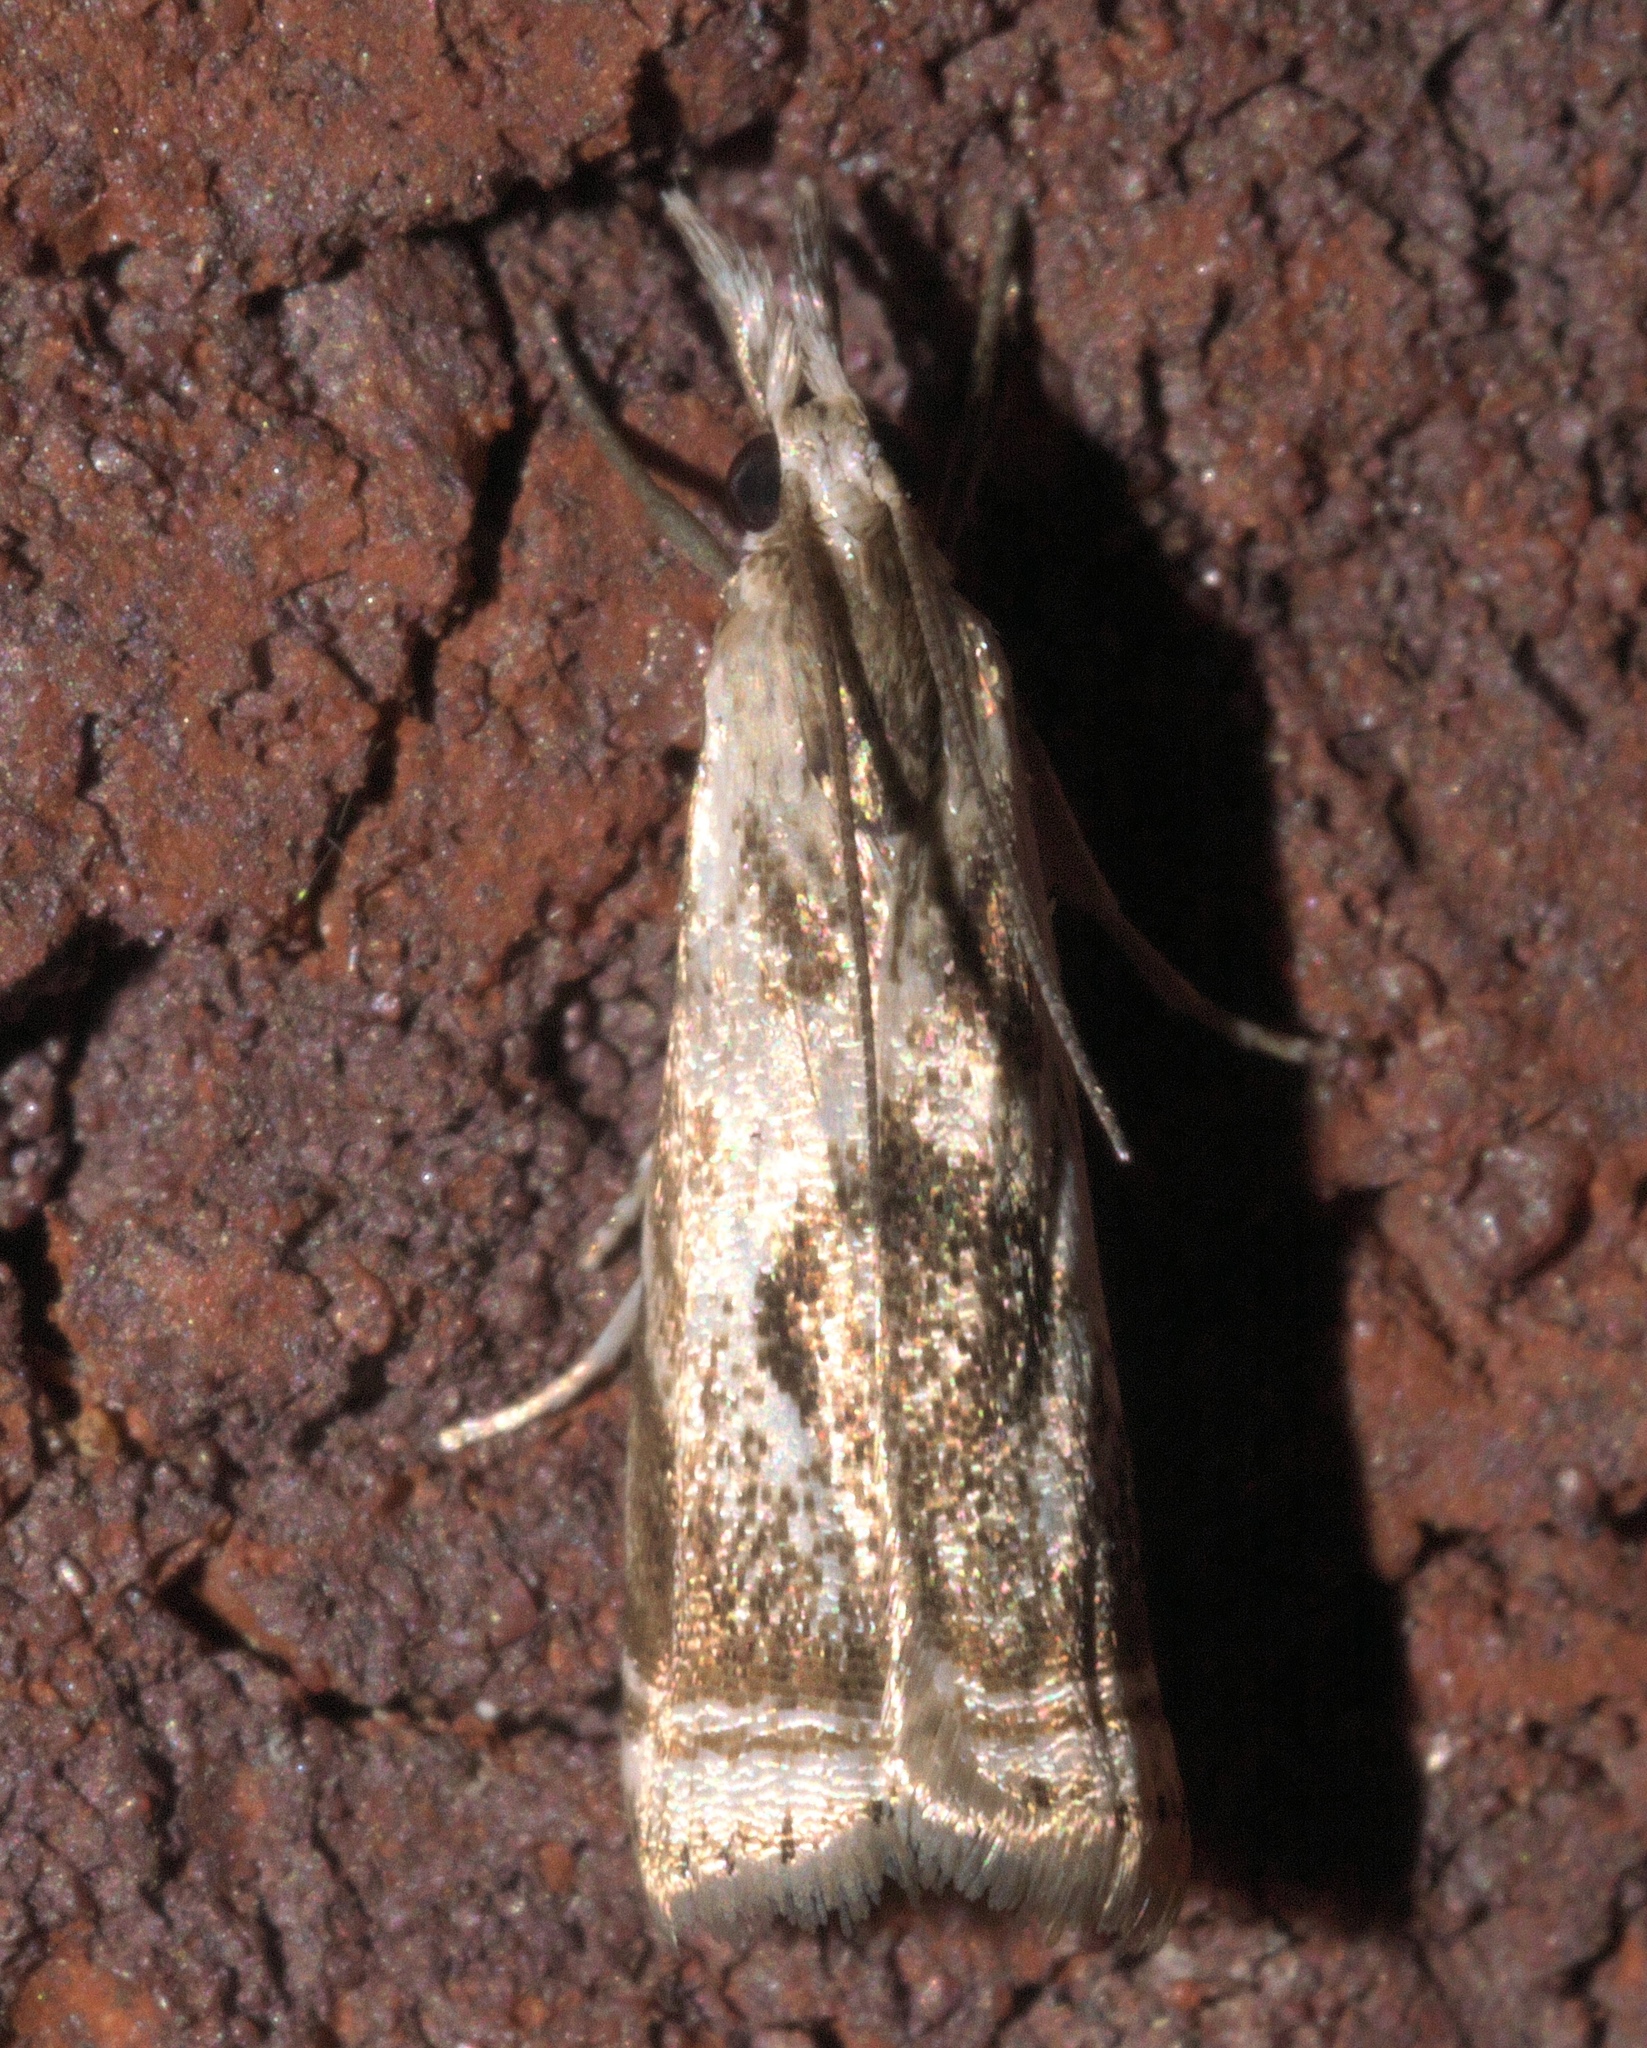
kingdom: Animalia
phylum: Arthropoda
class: Insecta
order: Lepidoptera
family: Crambidae
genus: Microcrambus
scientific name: Microcrambus elegans
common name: Elegant grass-veneer
